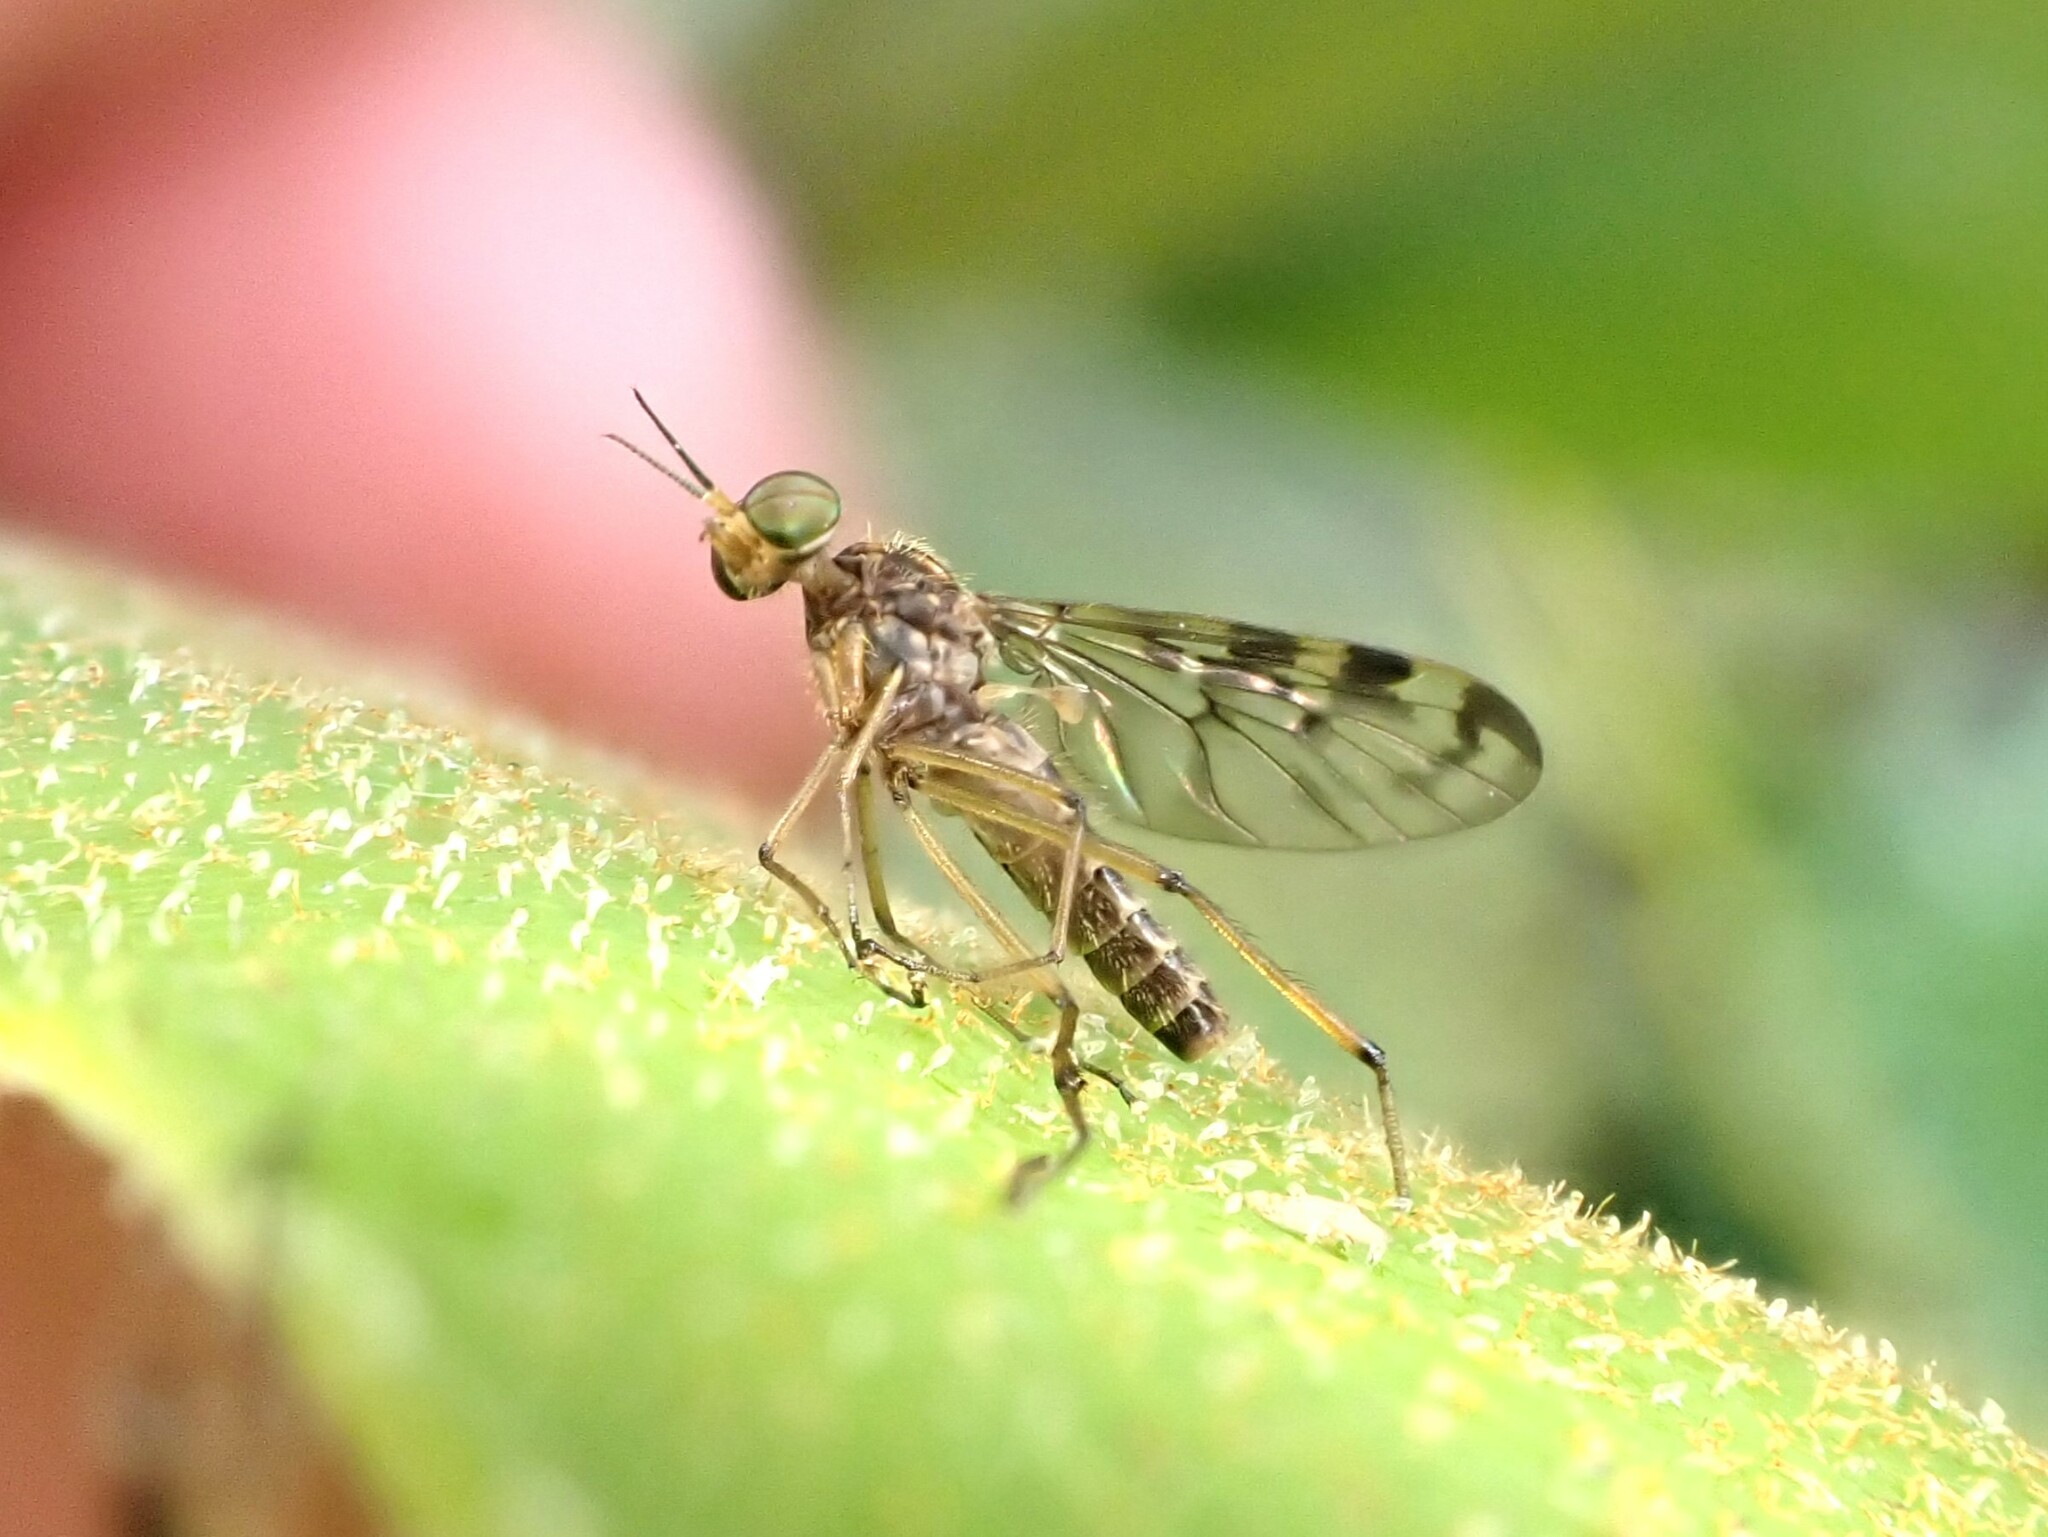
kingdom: Animalia
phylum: Arthropoda
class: Insecta
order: Diptera
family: Anisopodidae
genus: Sylvicola
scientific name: Sylvicola dubius
